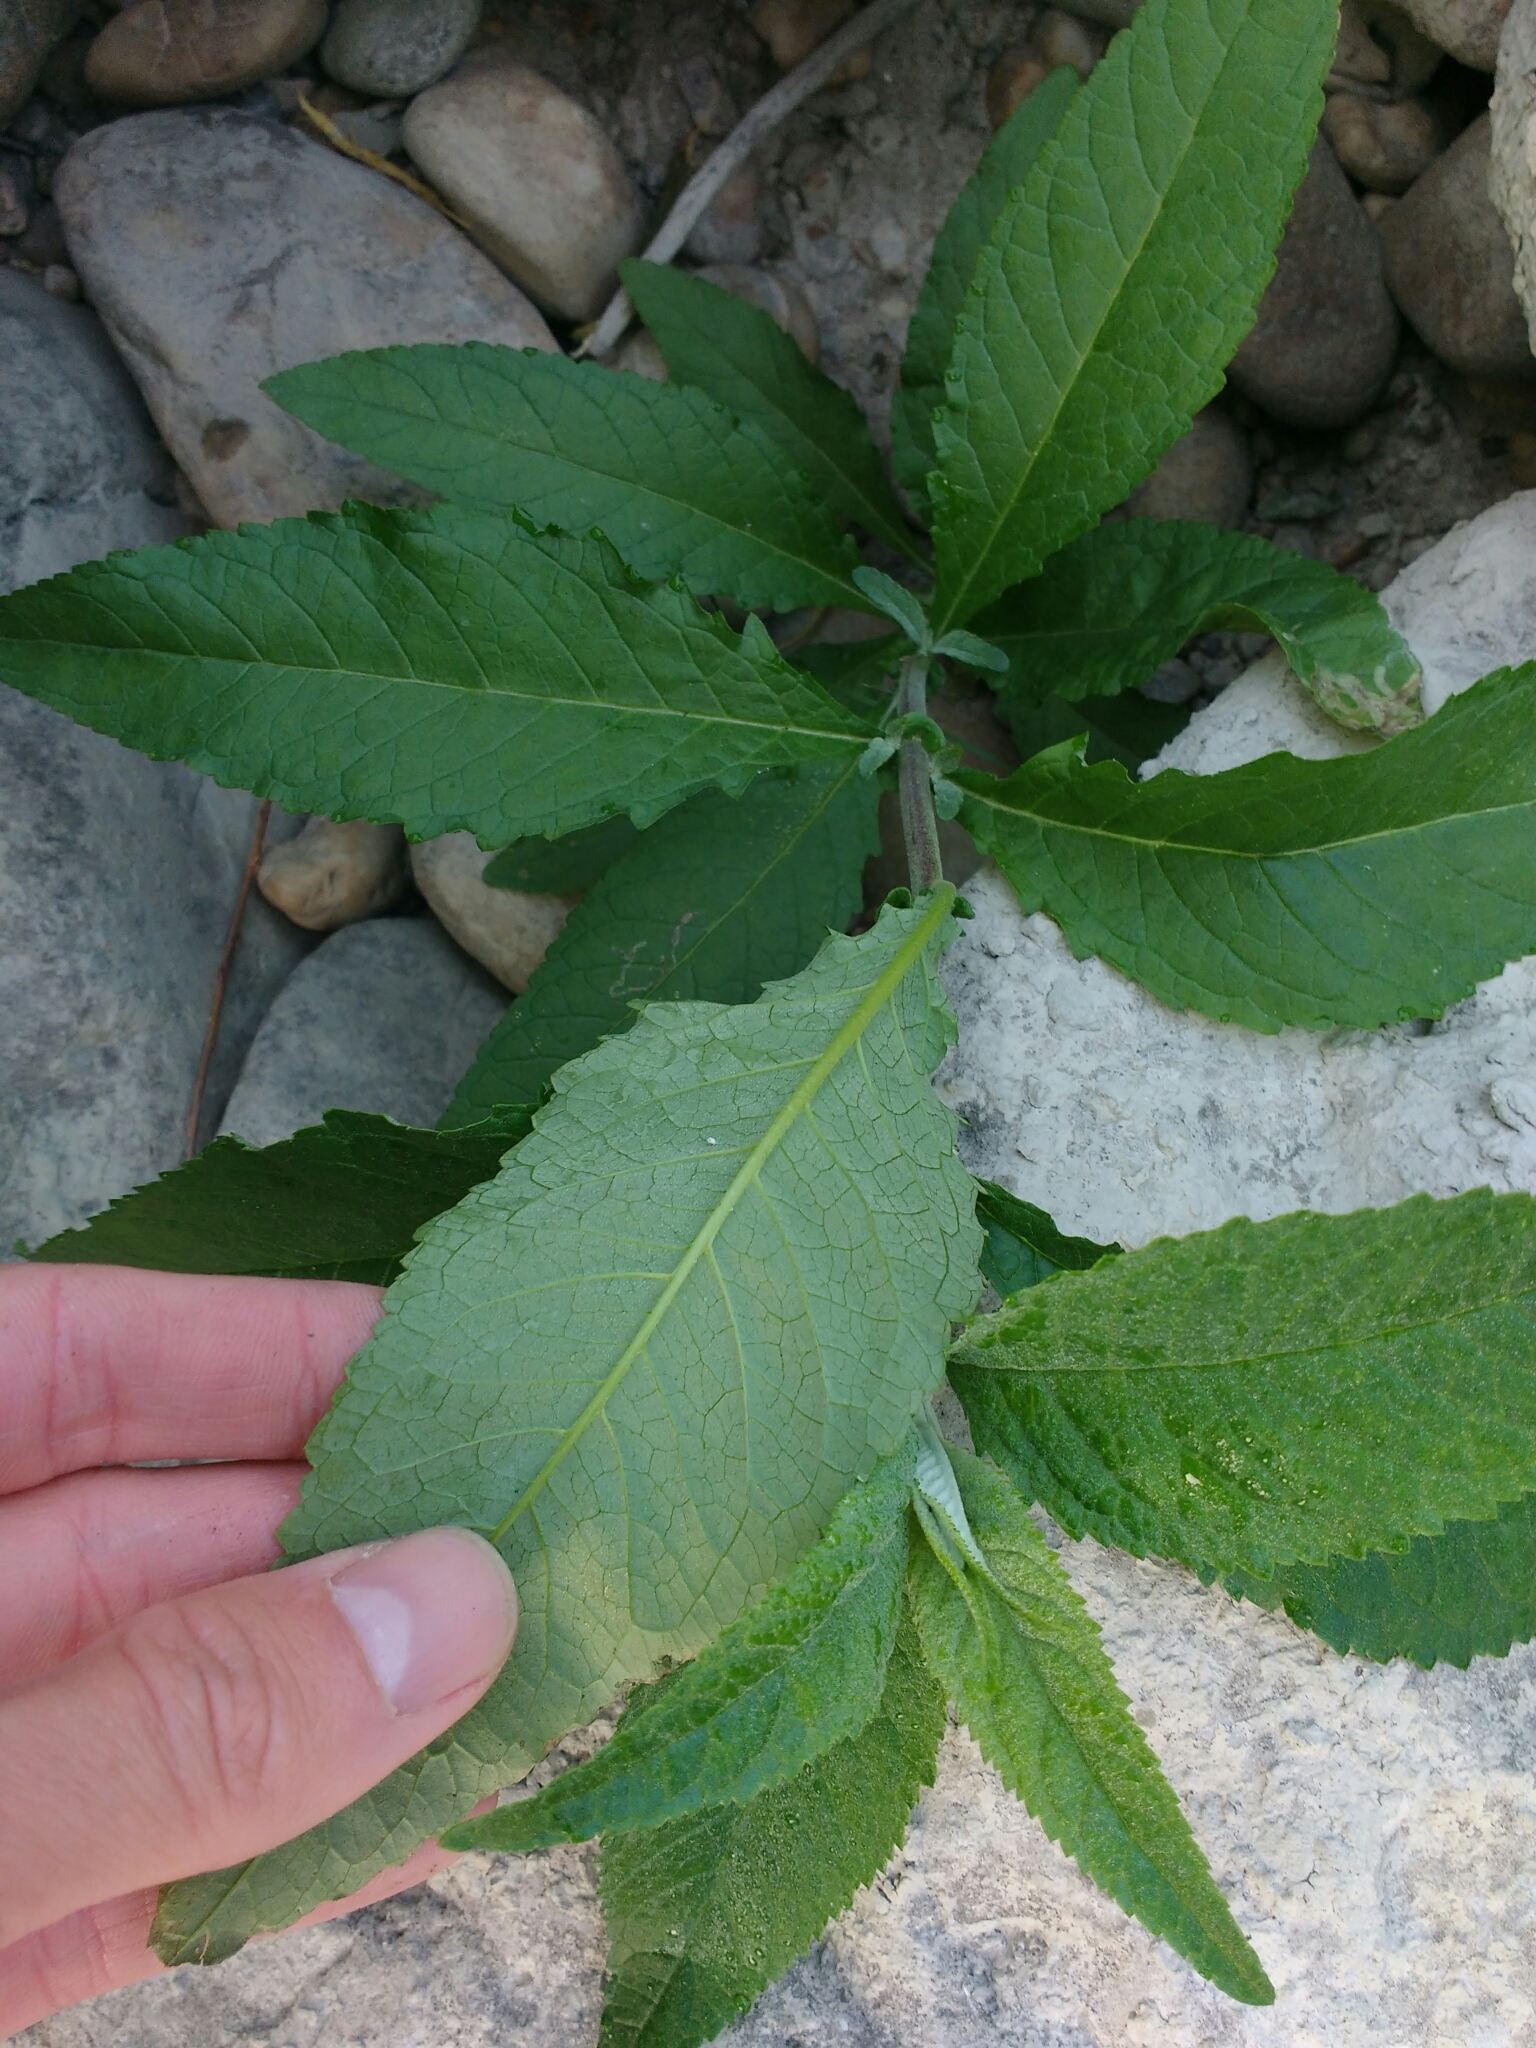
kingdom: Plantae
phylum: Tracheophyta
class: Magnoliopsida
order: Lamiales
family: Scrophulariaceae
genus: Buddleja
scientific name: Buddleja davidii
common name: Butterfly-bush
